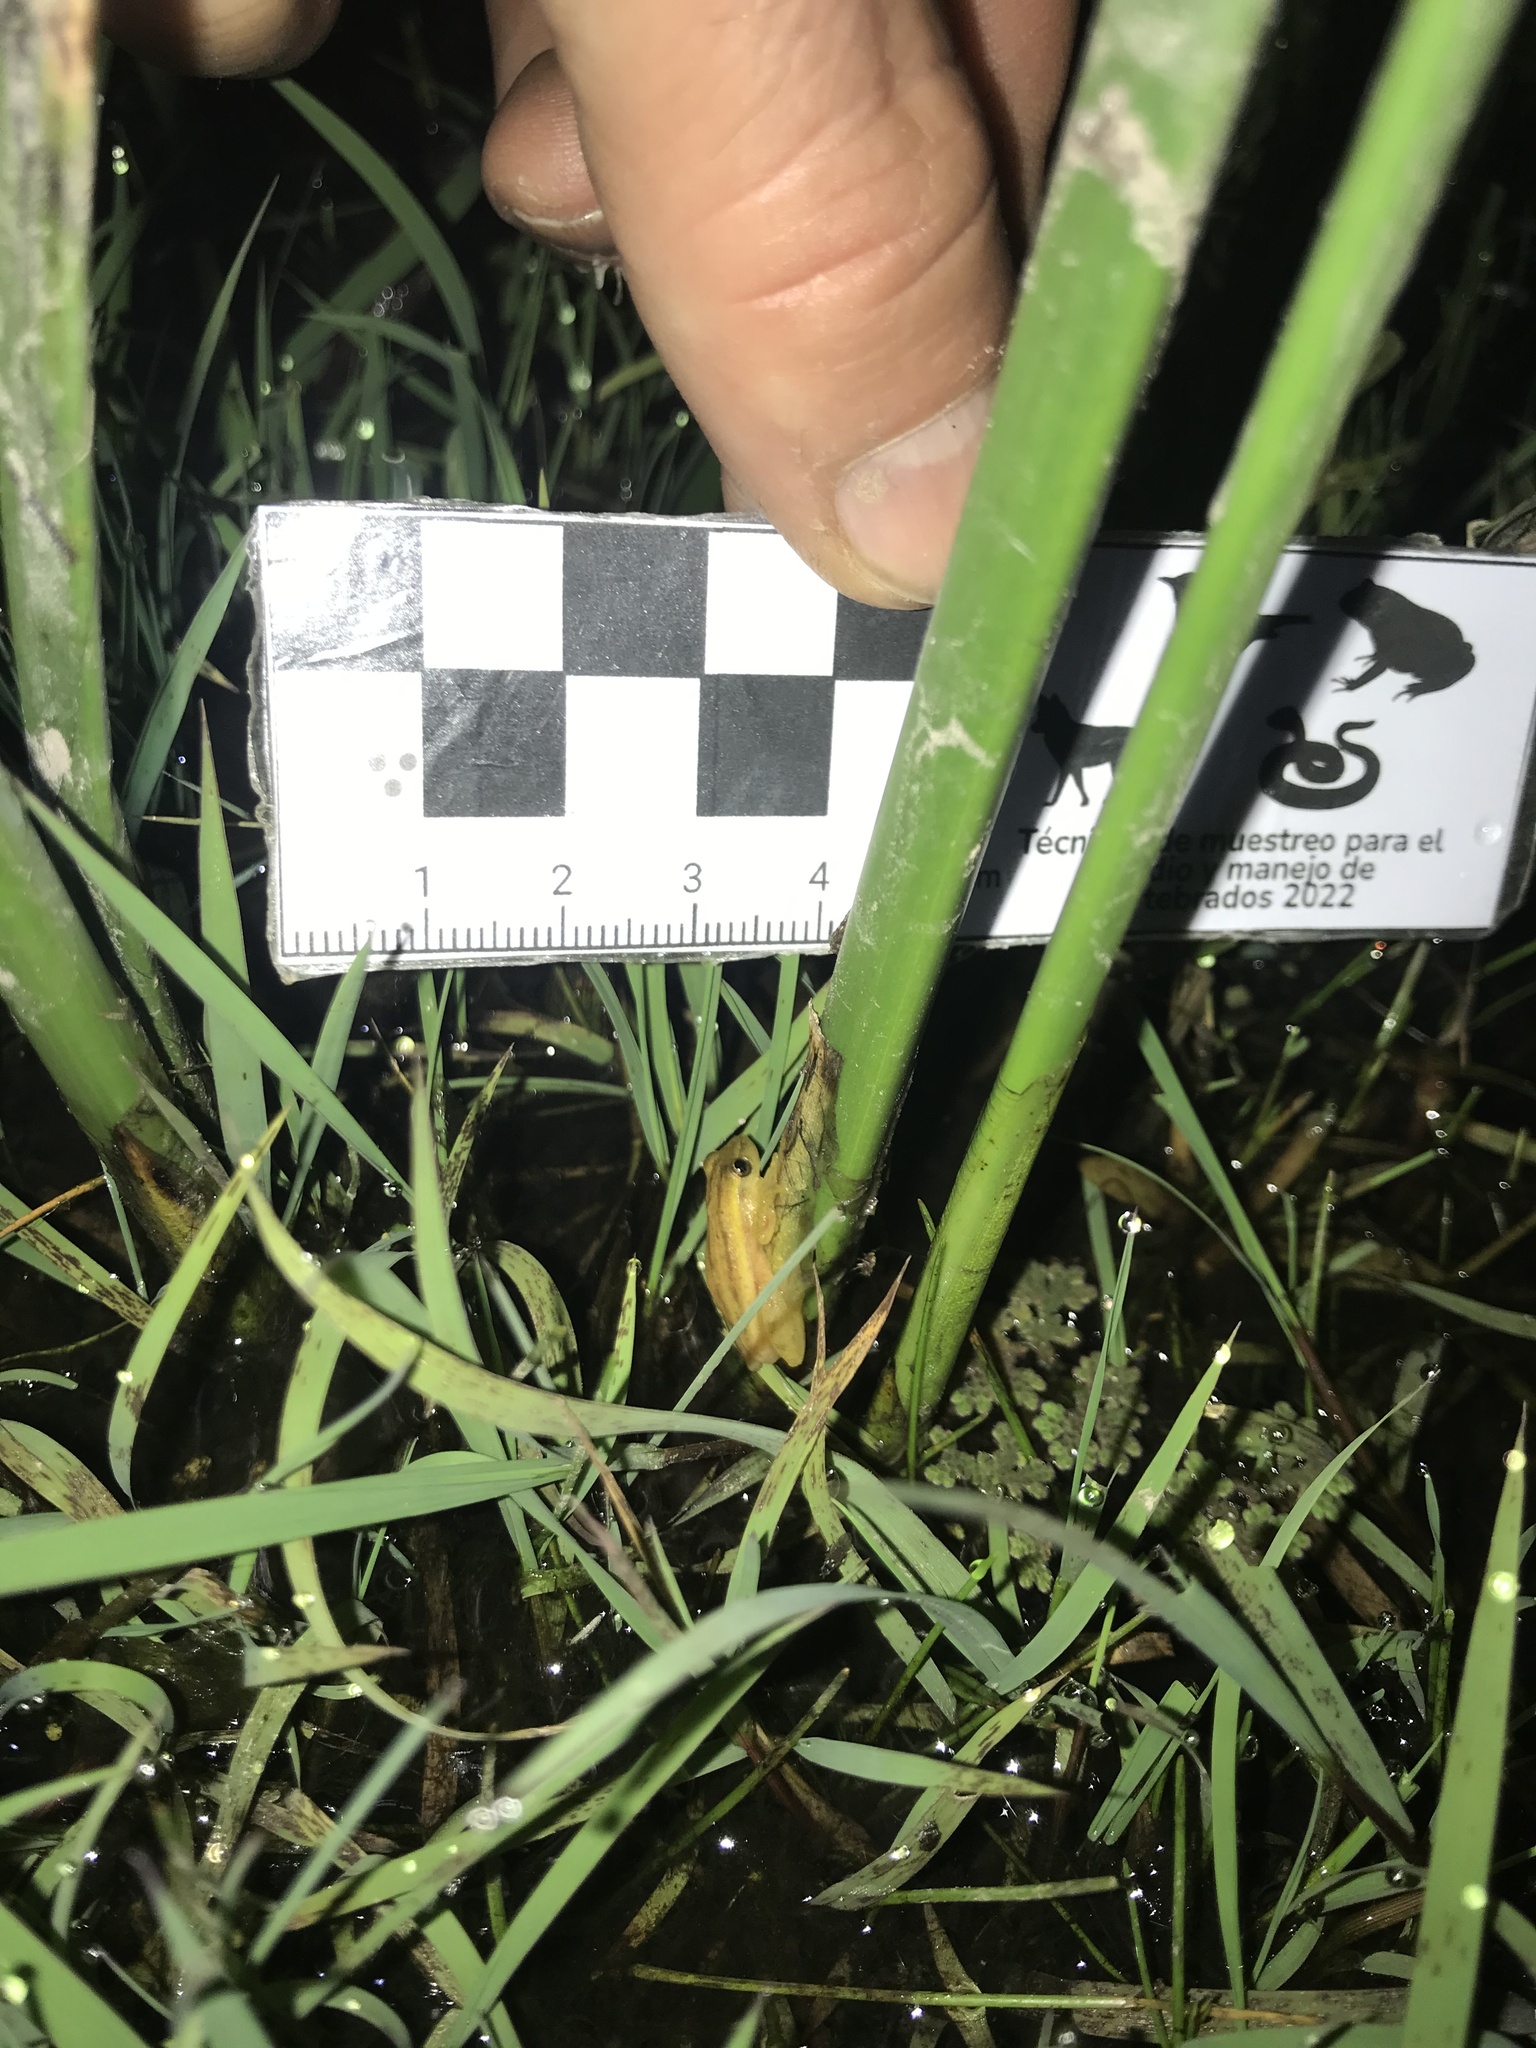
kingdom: Animalia
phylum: Chordata
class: Amphibia
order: Anura
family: Hylidae
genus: Dendropsophus
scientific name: Dendropsophus sanborni
